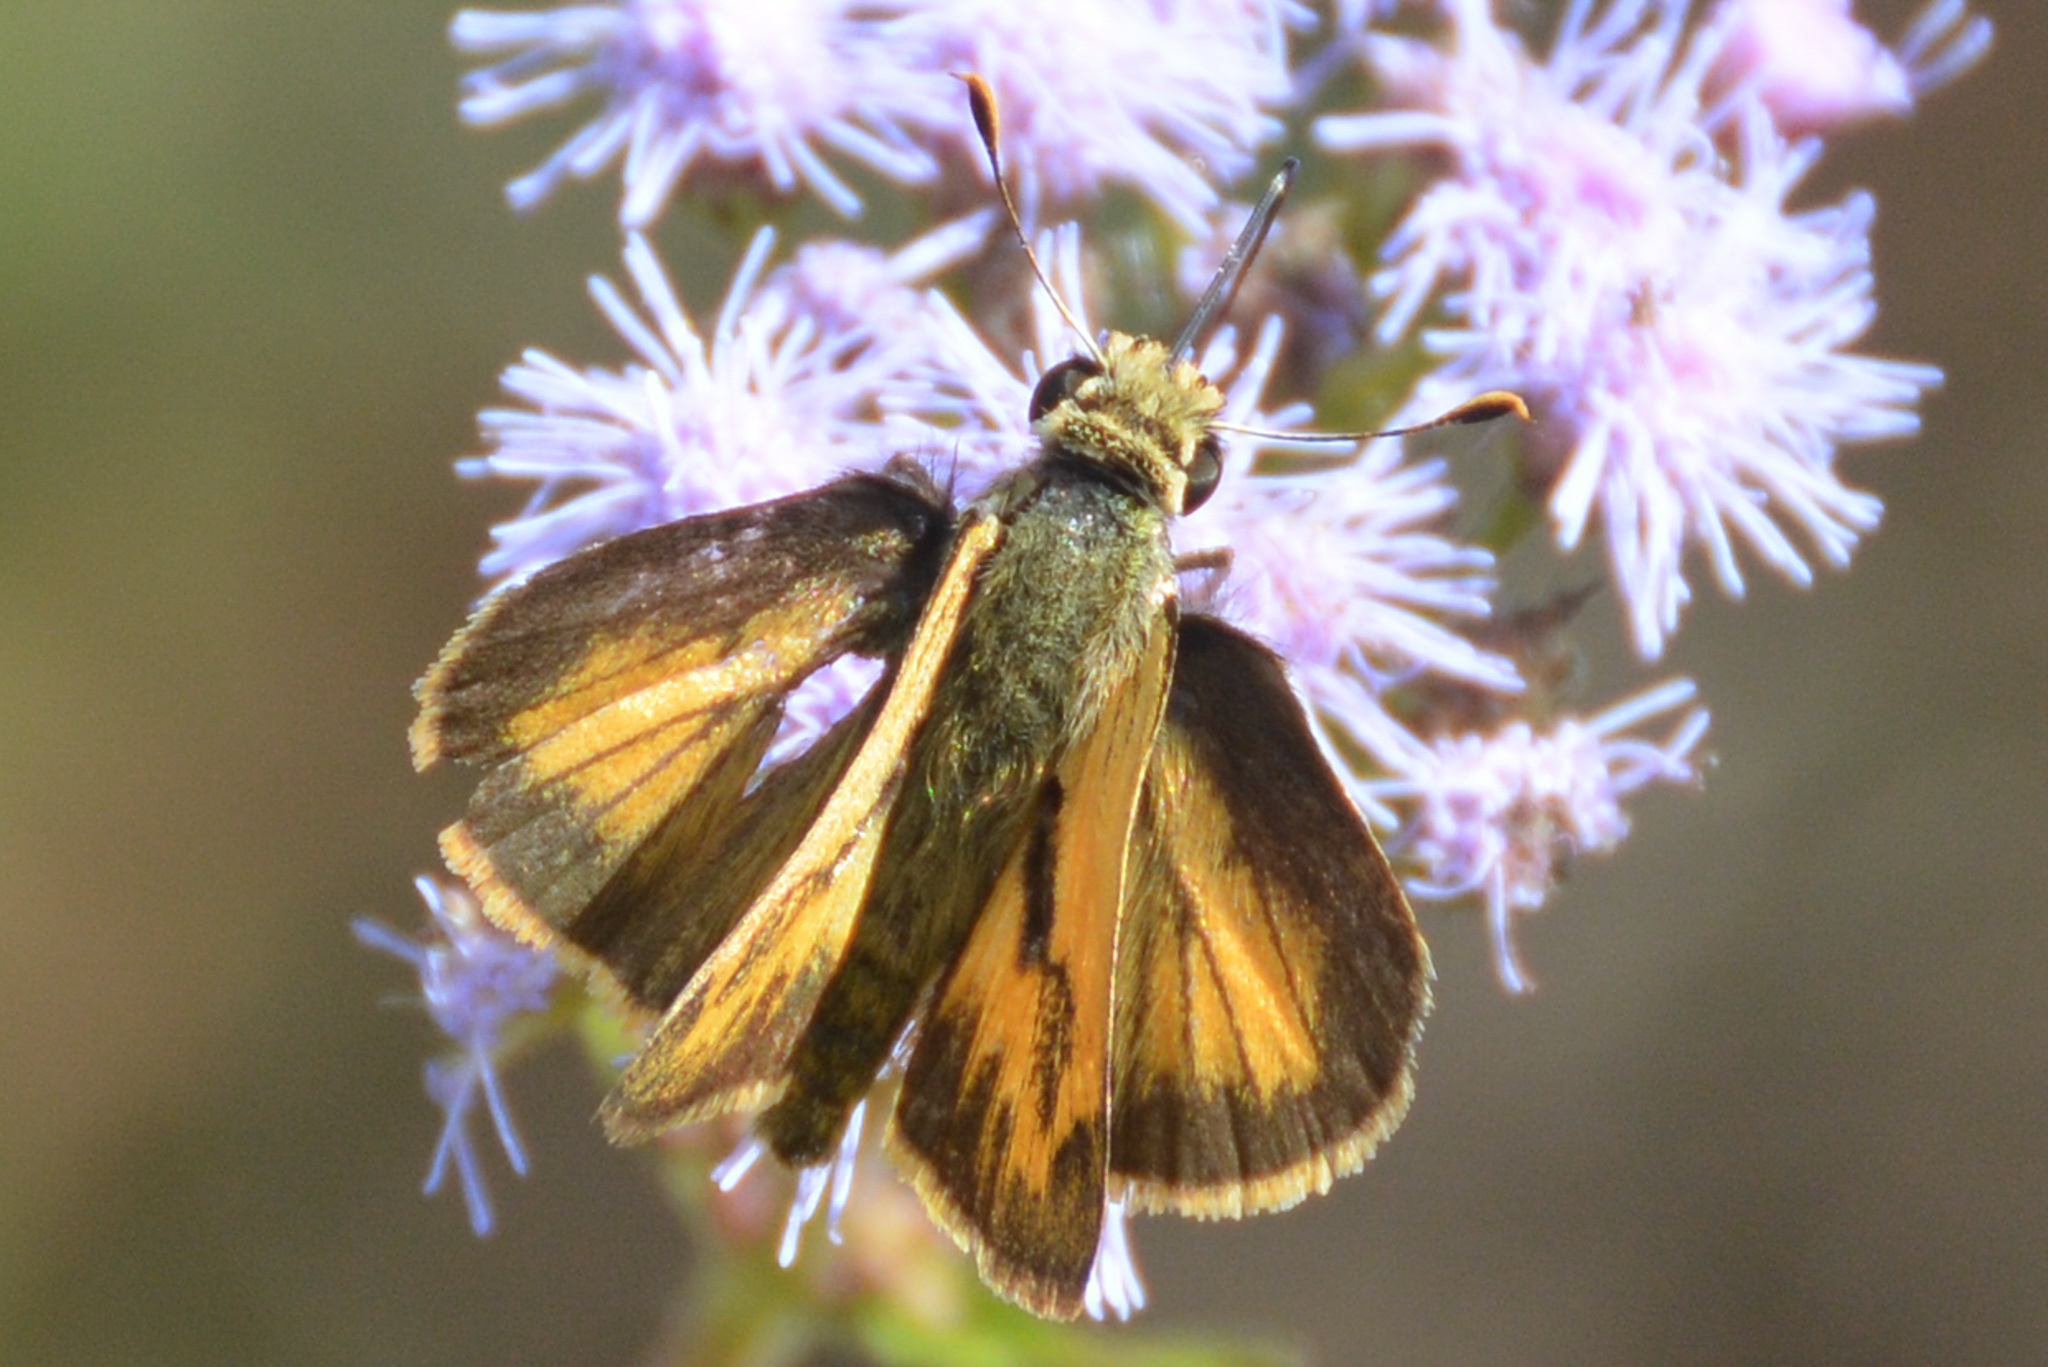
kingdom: Animalia
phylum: Arthropoda
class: Insecta
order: Lepidoptera
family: Hesperiidae
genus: Polites
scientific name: Polites vibex
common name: Whirlabout
